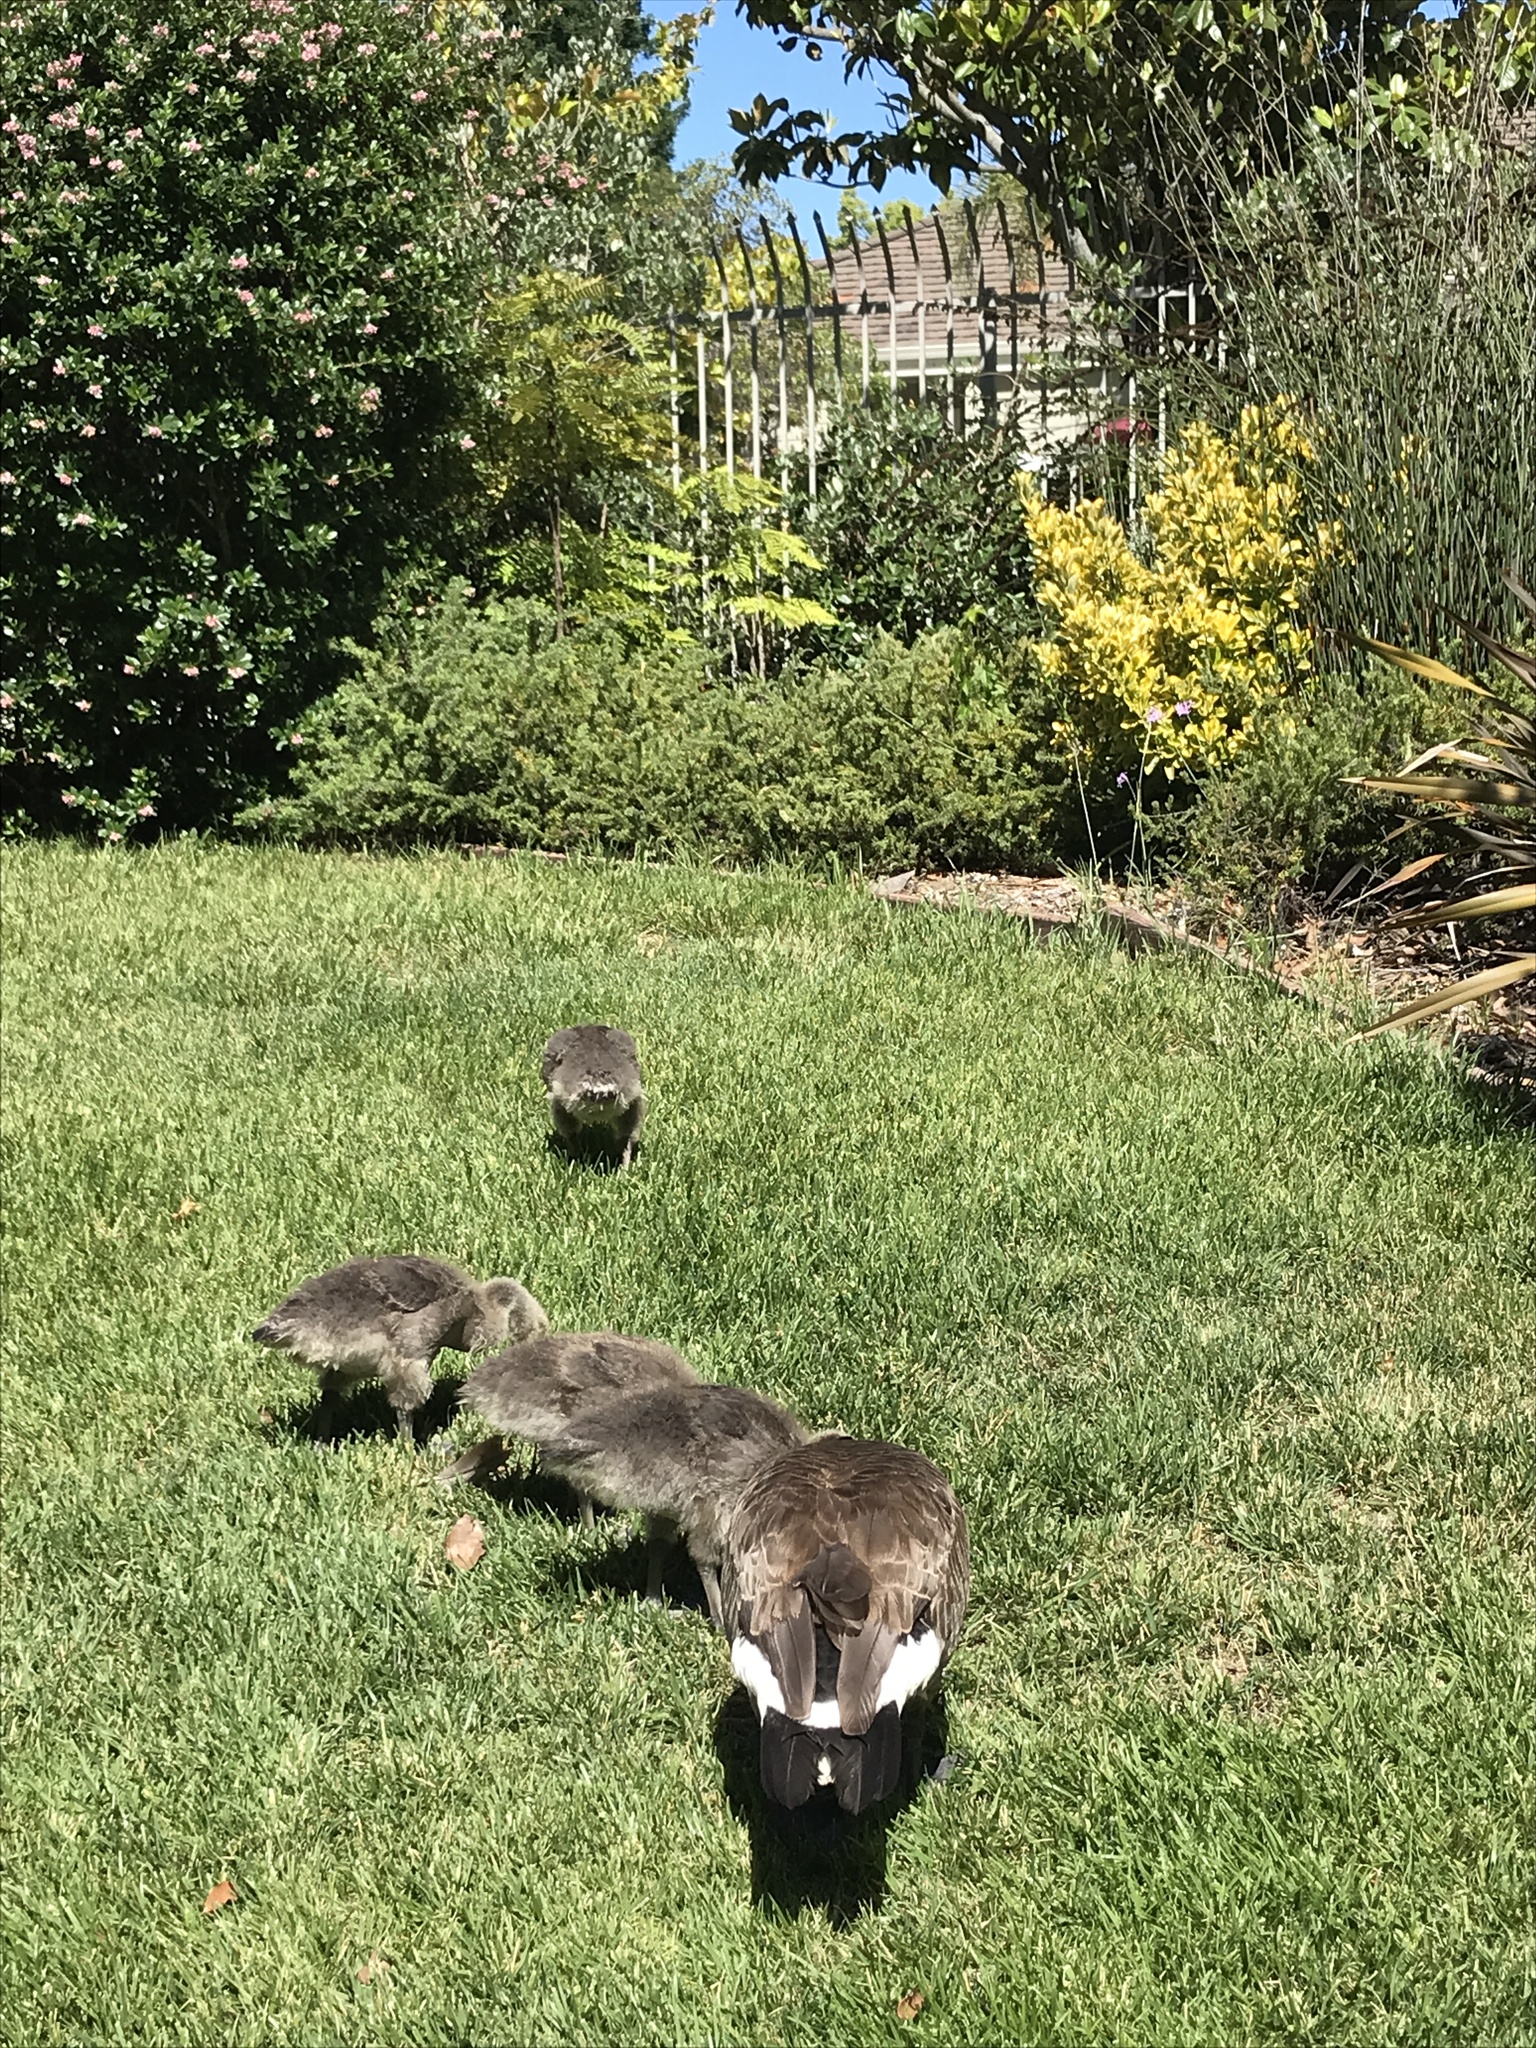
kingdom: Animalia
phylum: Chordata
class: Aves
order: Anseriformes
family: Anatidae
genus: Branta
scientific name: Branta canadensis
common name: Canada goose
